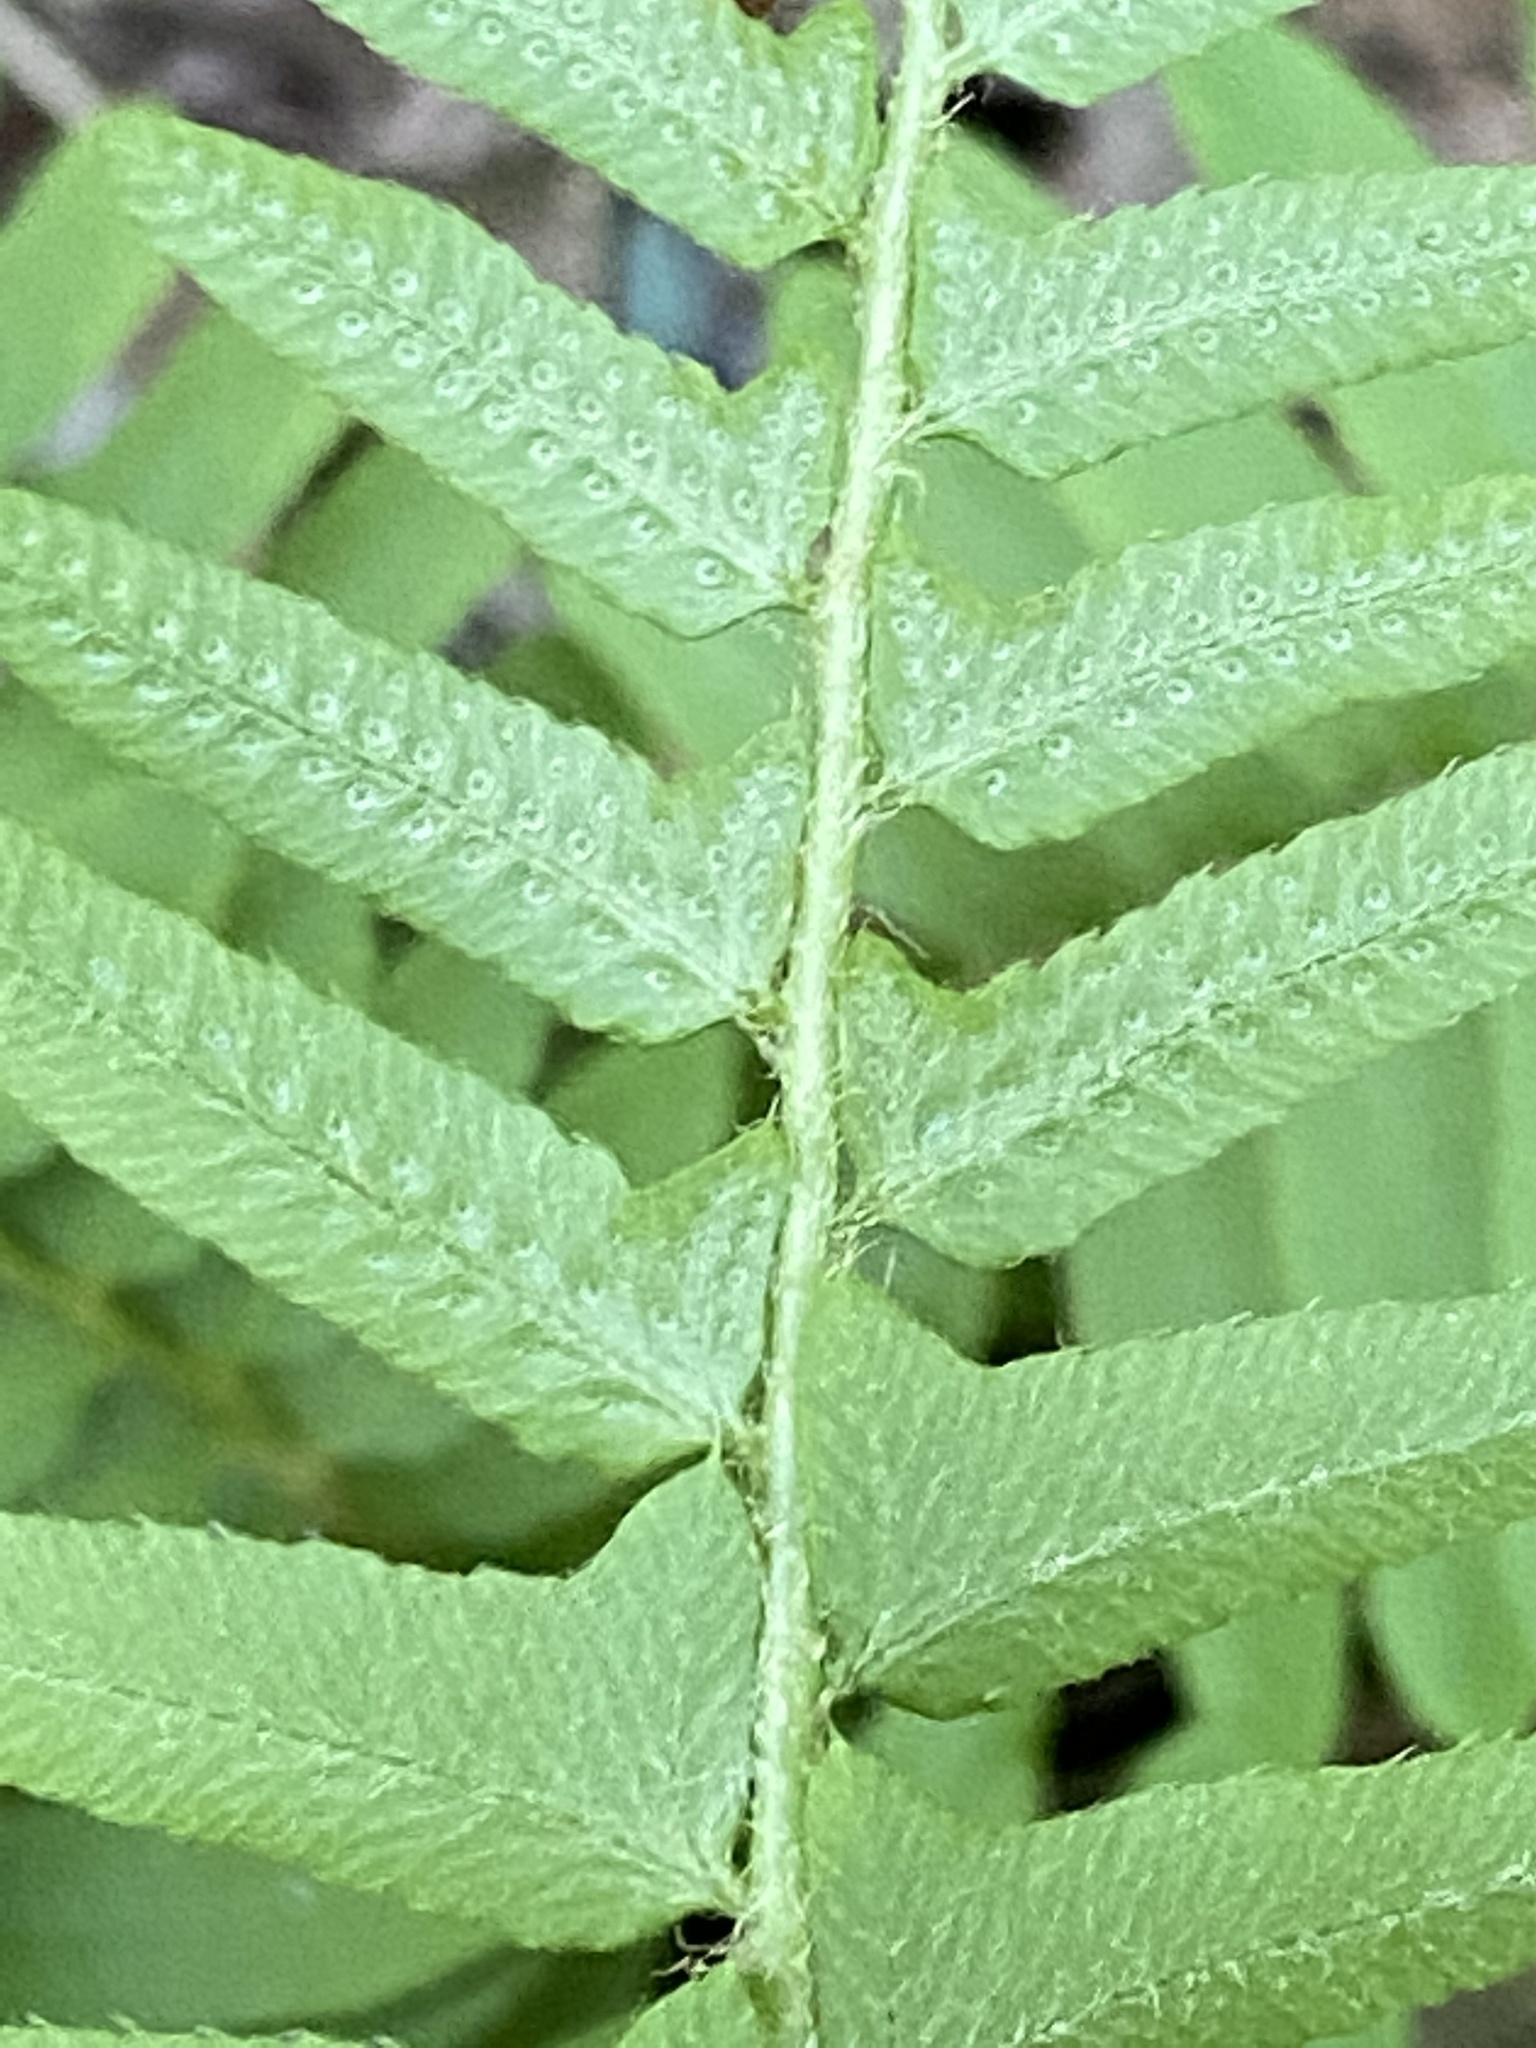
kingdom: Plantae
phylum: Tracheophyta
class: Polypodiopsida
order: Polypodiales
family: Dryopteridaceae
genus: Polystichum
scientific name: Polystichum acrostichoides
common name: Christmas fern
